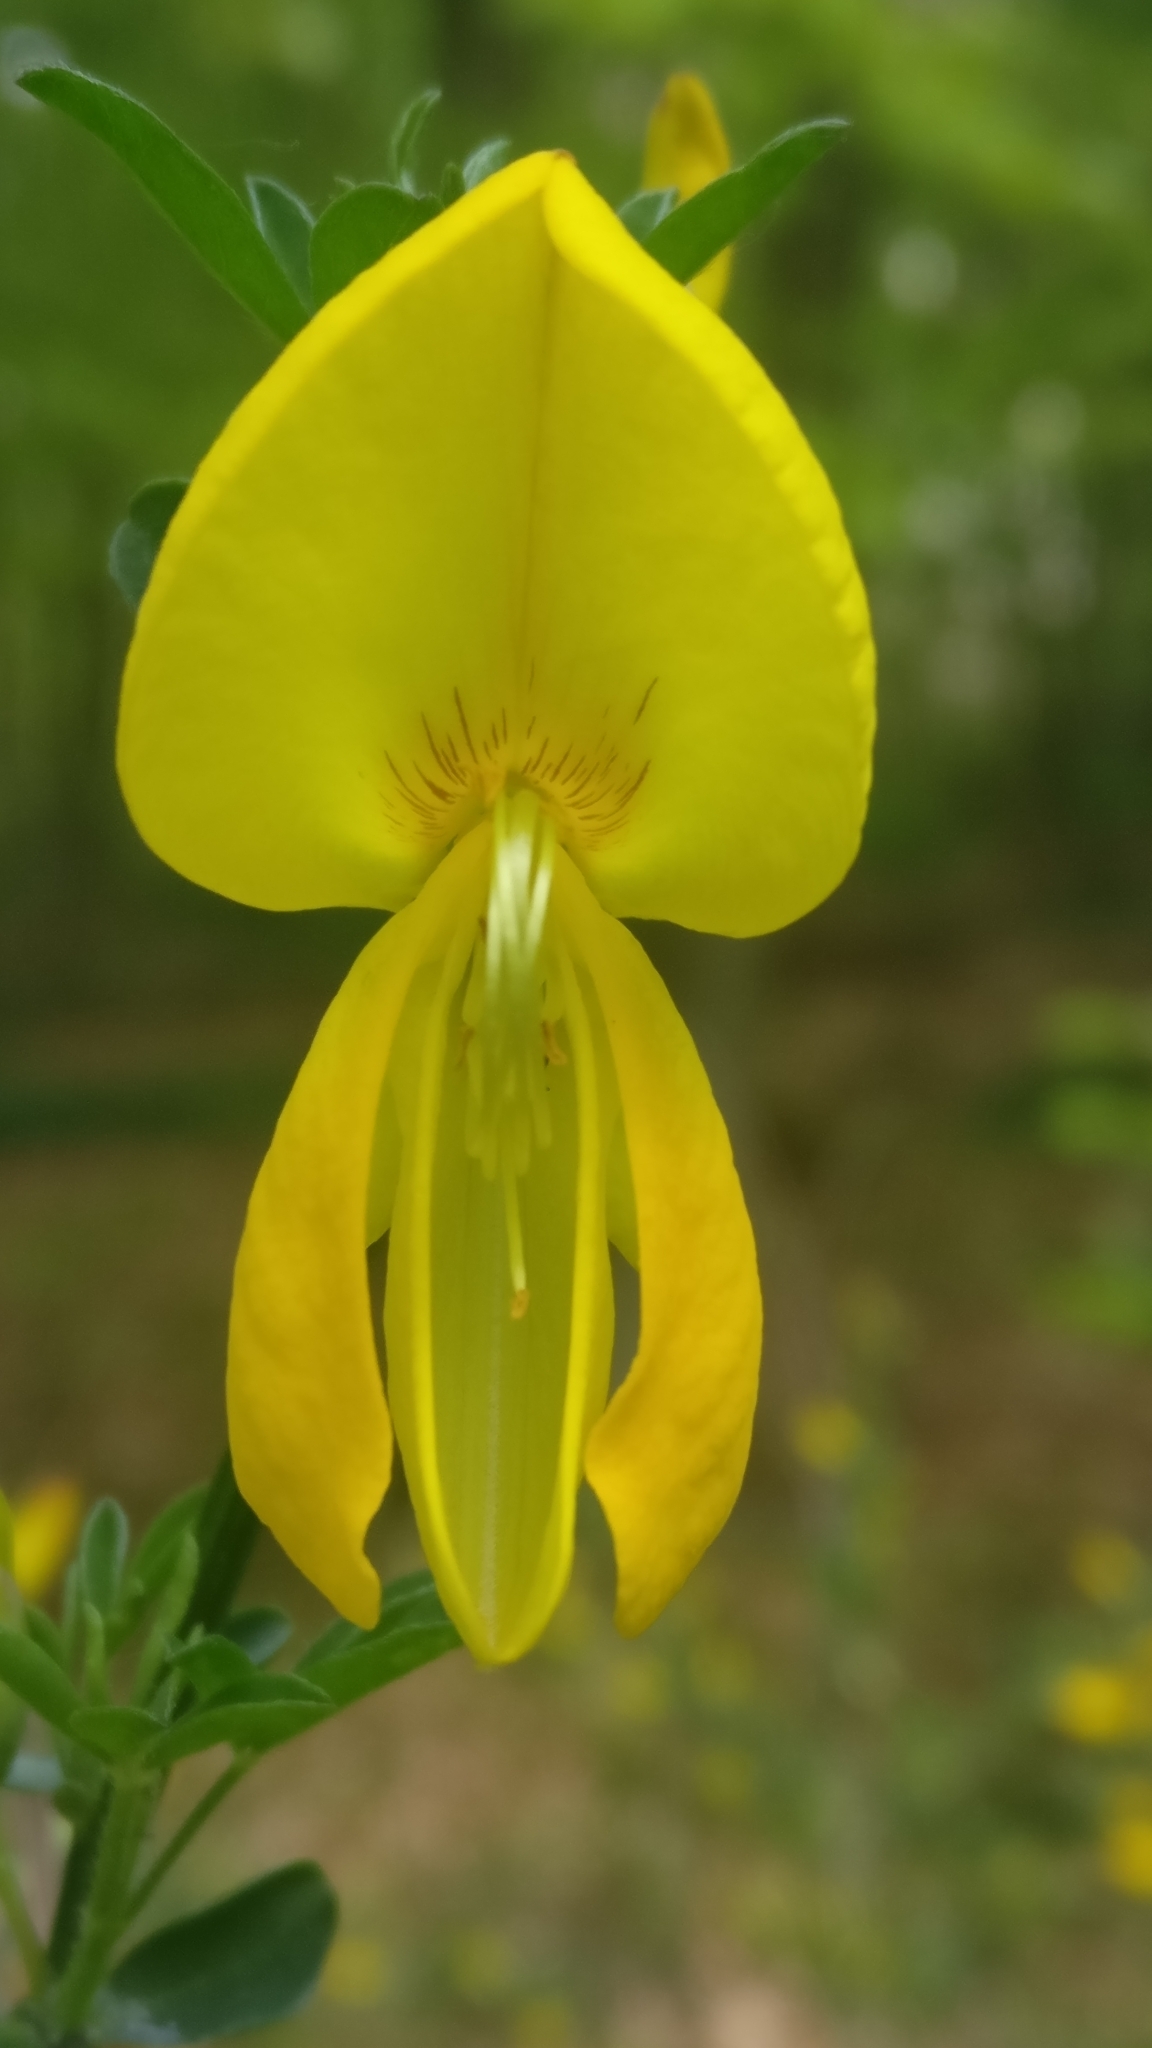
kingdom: Plantae
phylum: Tracheophyta
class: Magnoliopsida
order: Fabales
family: Fabaceae
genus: Cytisus
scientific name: Cytisus scoparius
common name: Scotch broom
